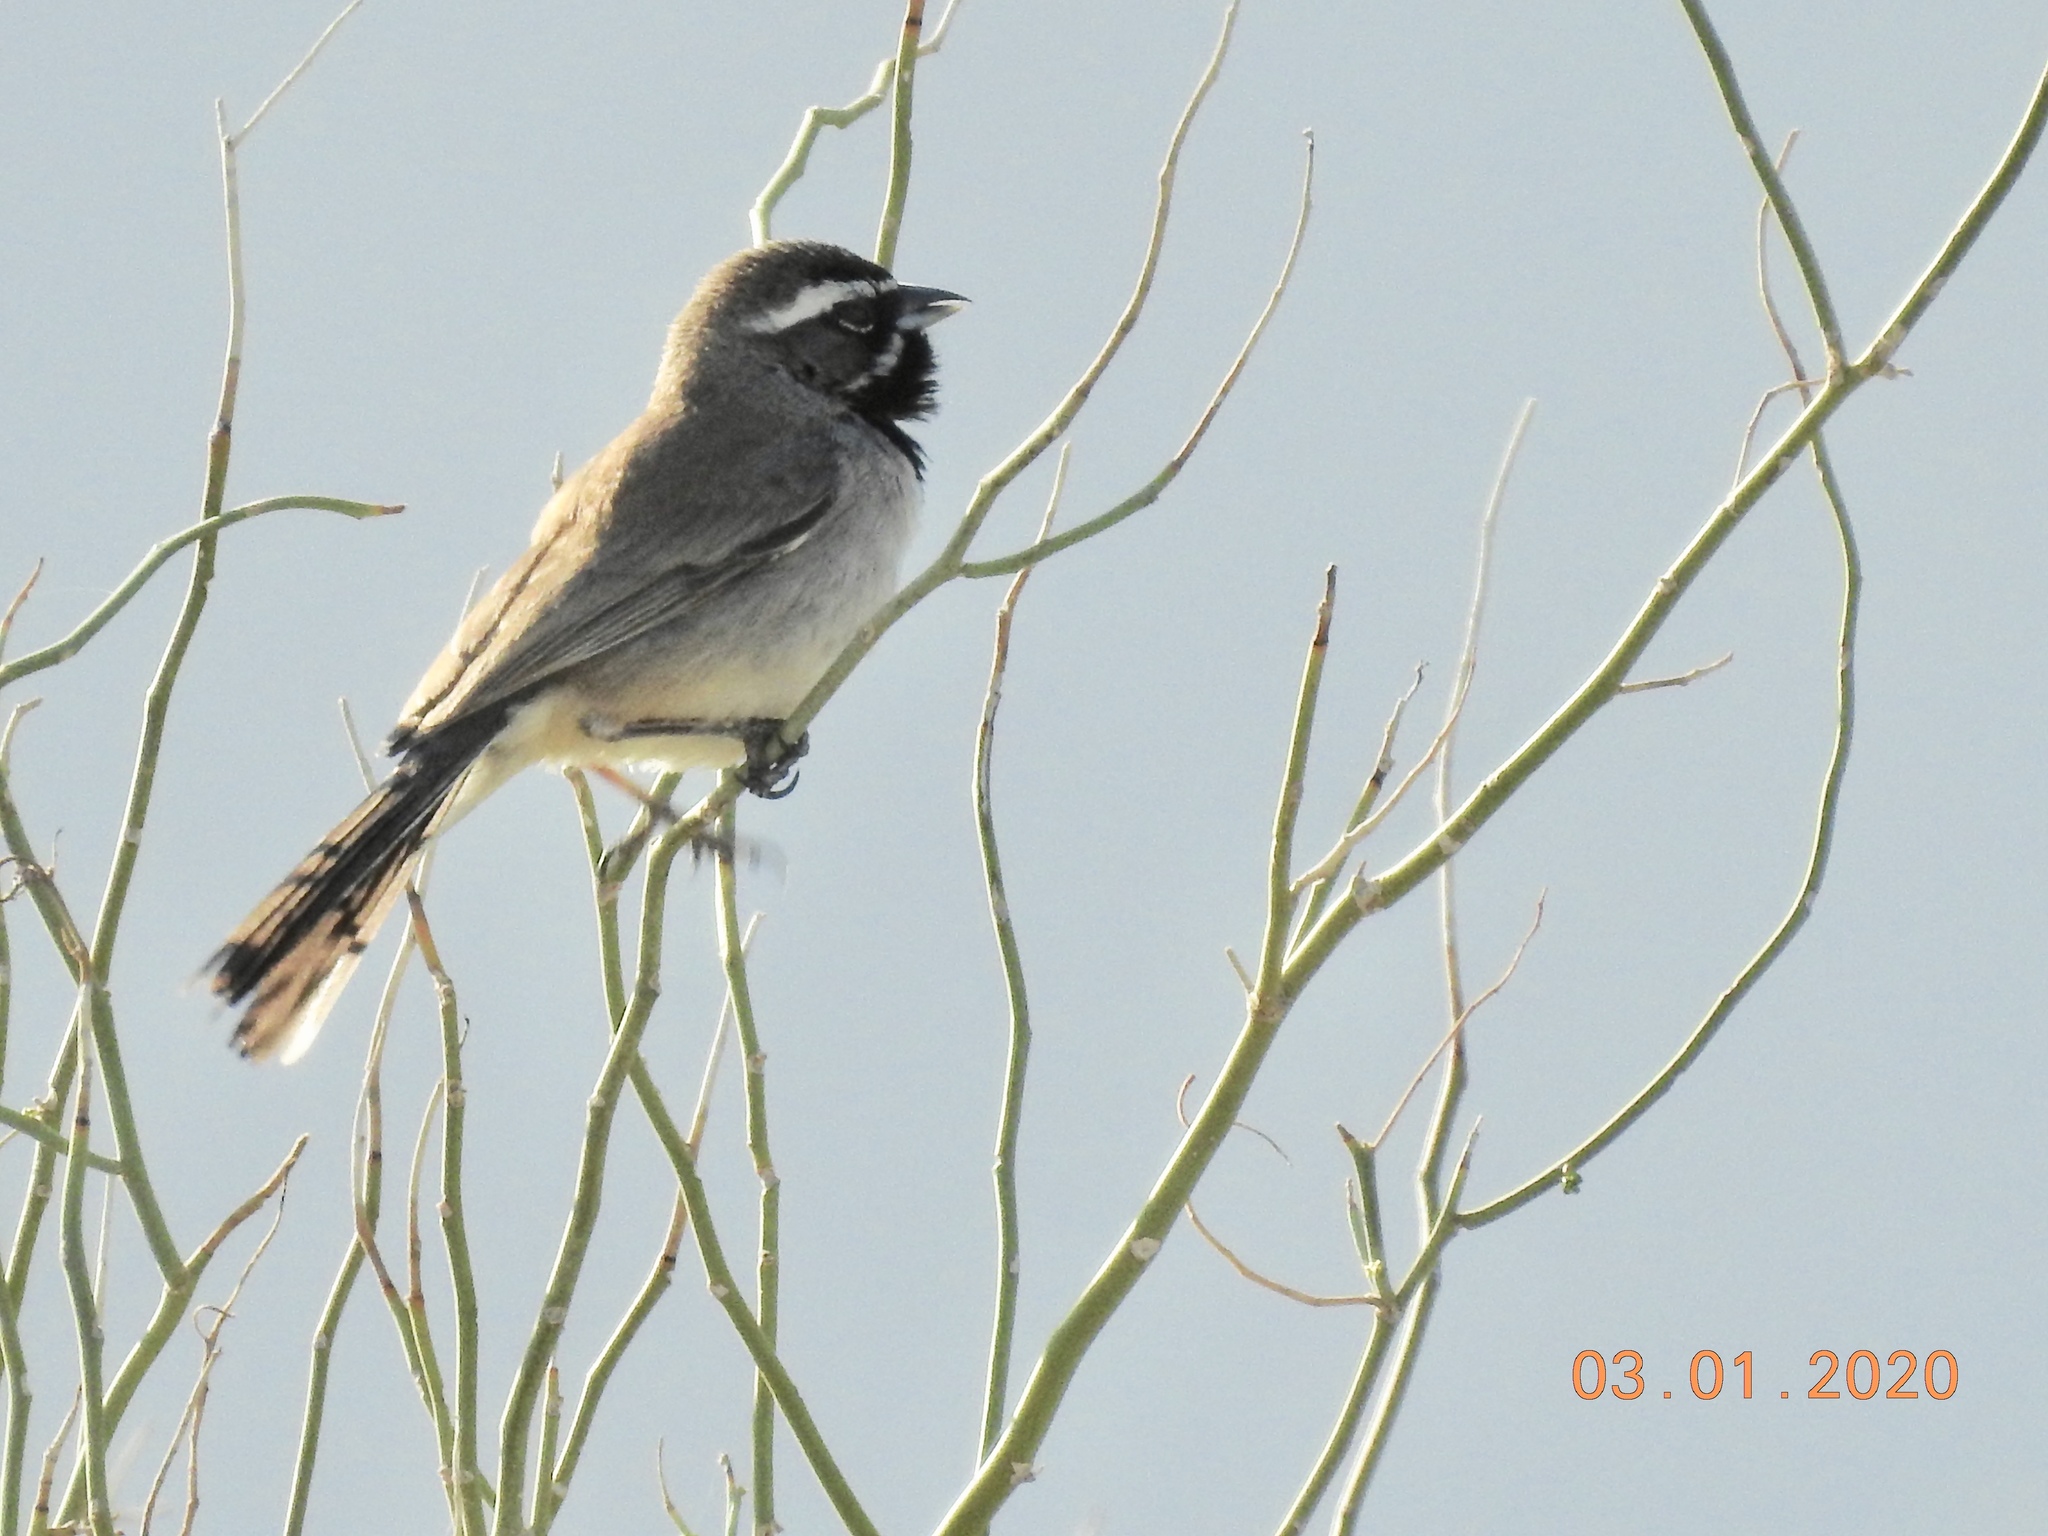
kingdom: Animalia
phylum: Chordata
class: Aves
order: Passeriformes
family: Passerellidae
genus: Amphispiza
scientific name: Amphispiza bilineata
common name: Black-throated sparrow
